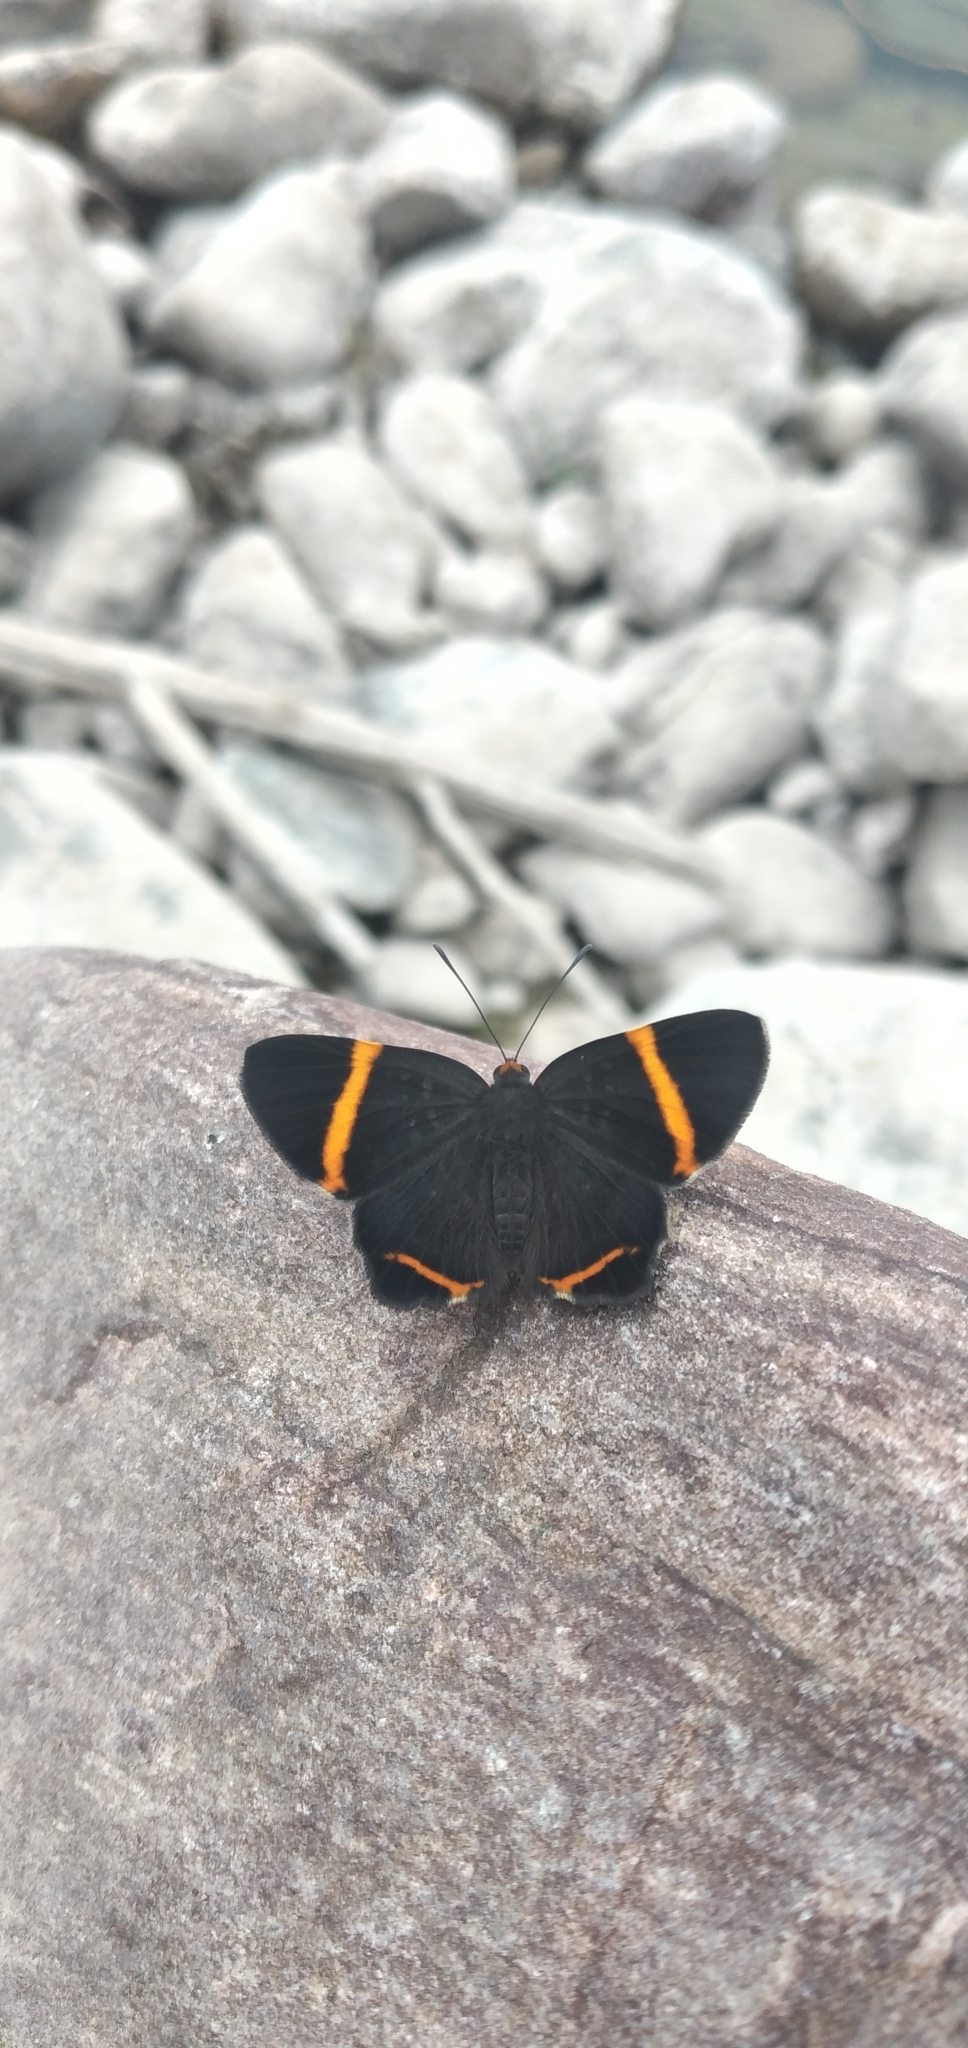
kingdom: Animalia
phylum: Arthropoda
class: Insecta
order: Lepidoptera
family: Riodinidae
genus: Riodina
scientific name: Riodina lysippoides
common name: Little dancer metalmark
